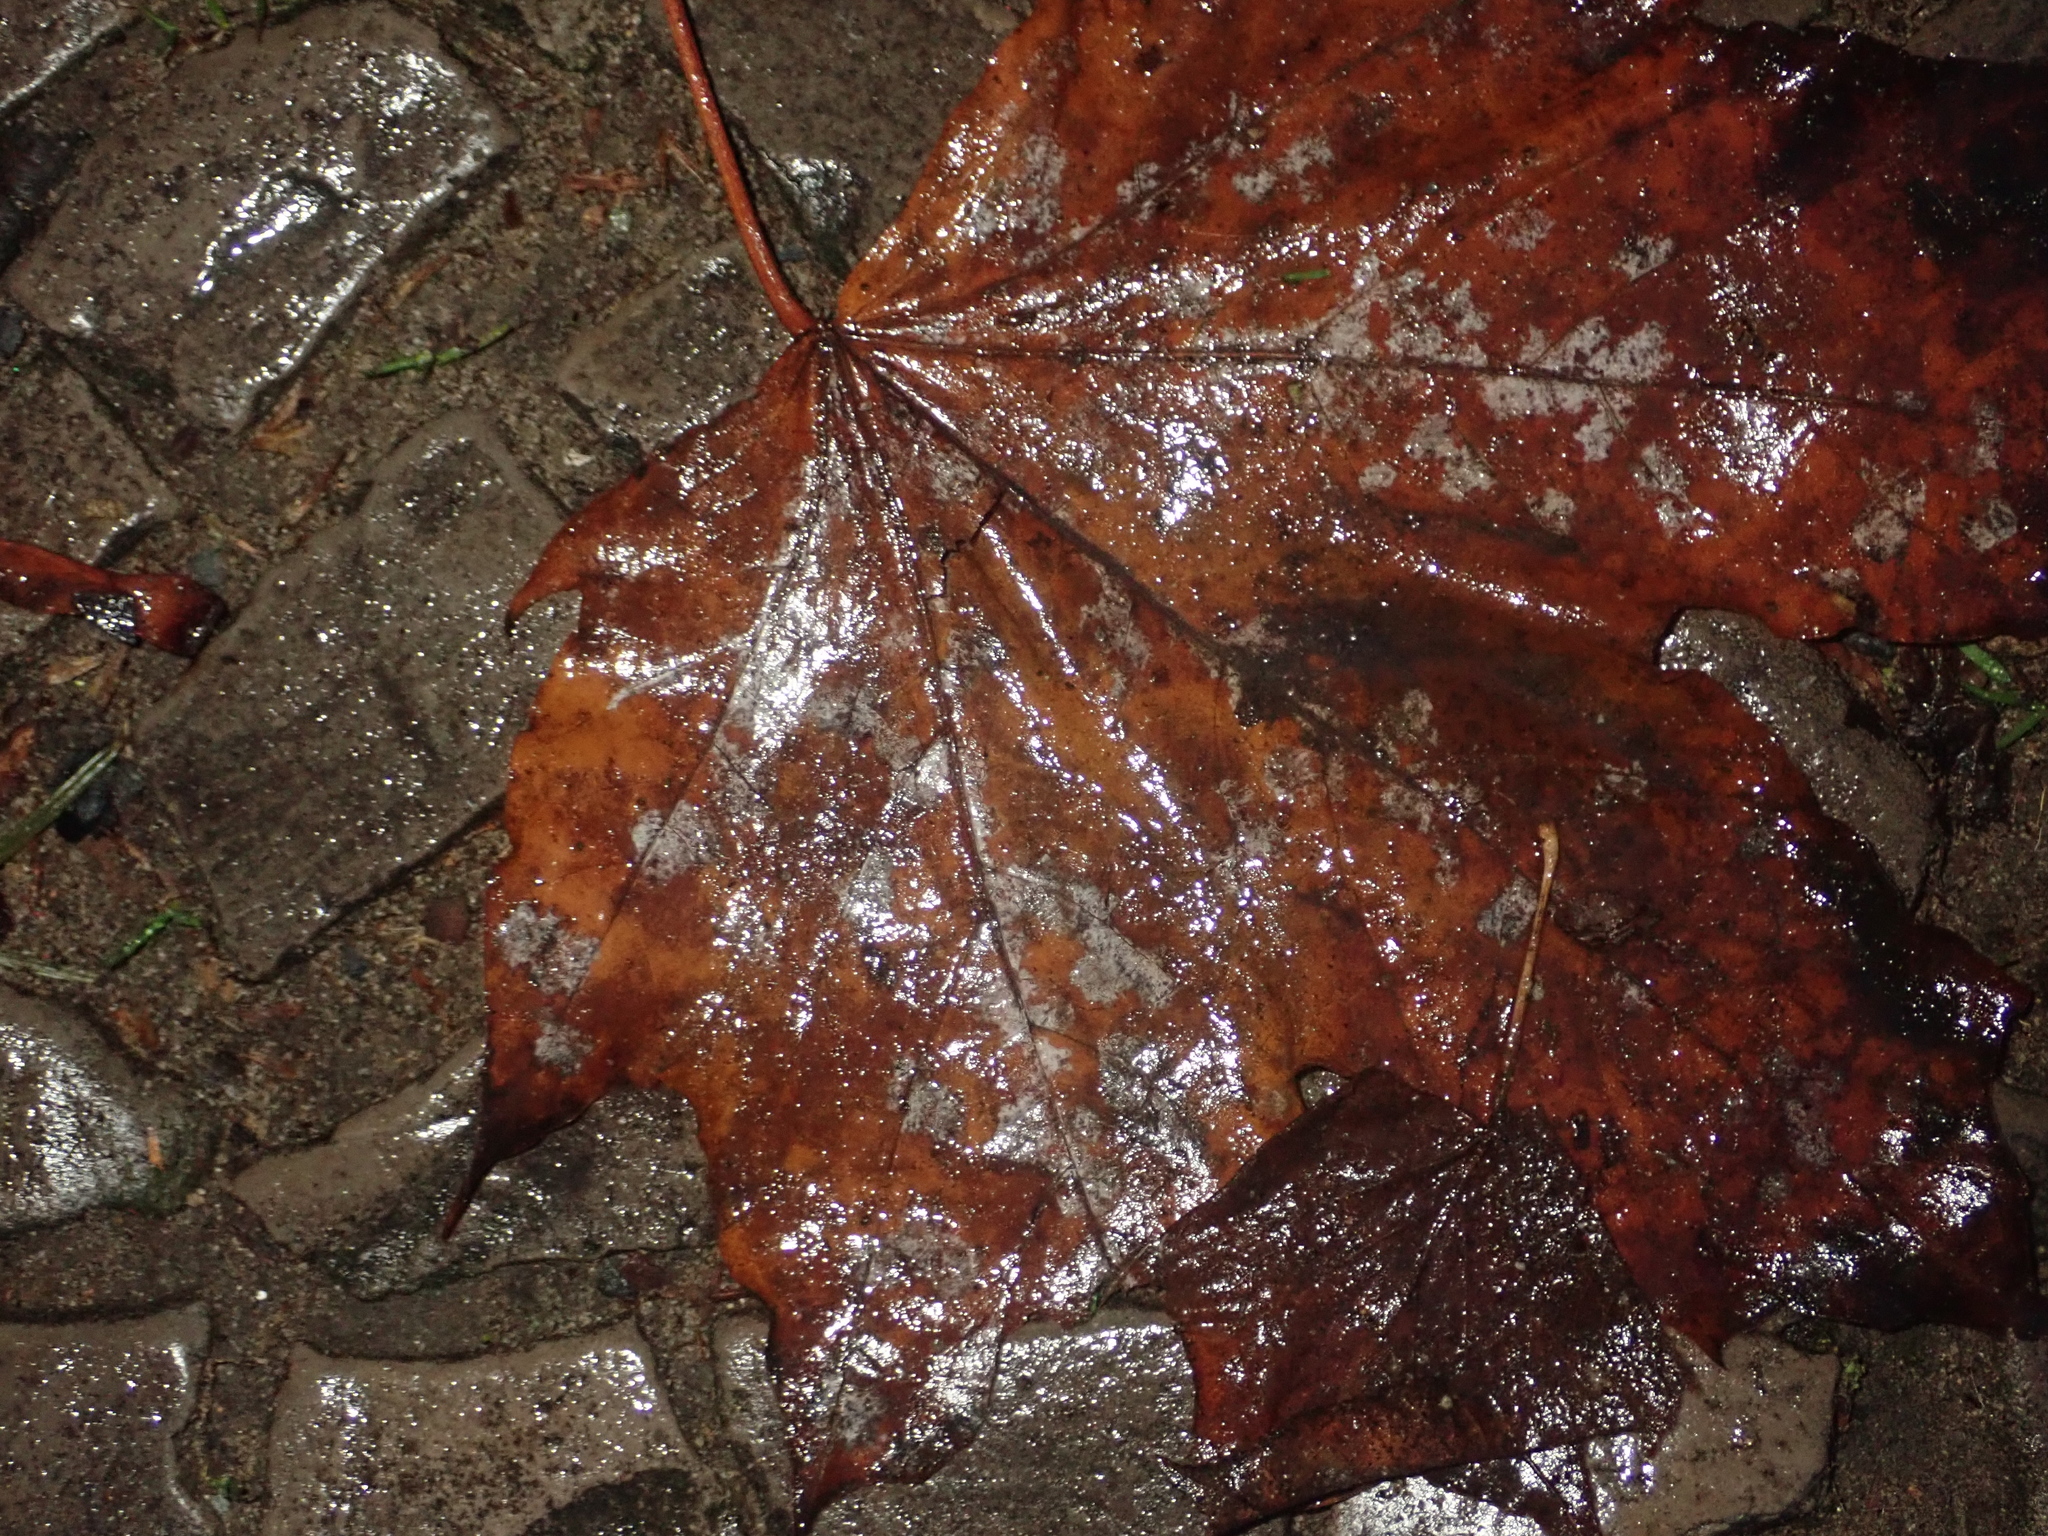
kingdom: Fungi
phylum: Ascomycota
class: Leotiomycetes
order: Helotiales
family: Erysiphaceae
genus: Sawadaea
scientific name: Sawadaea tulasnei
